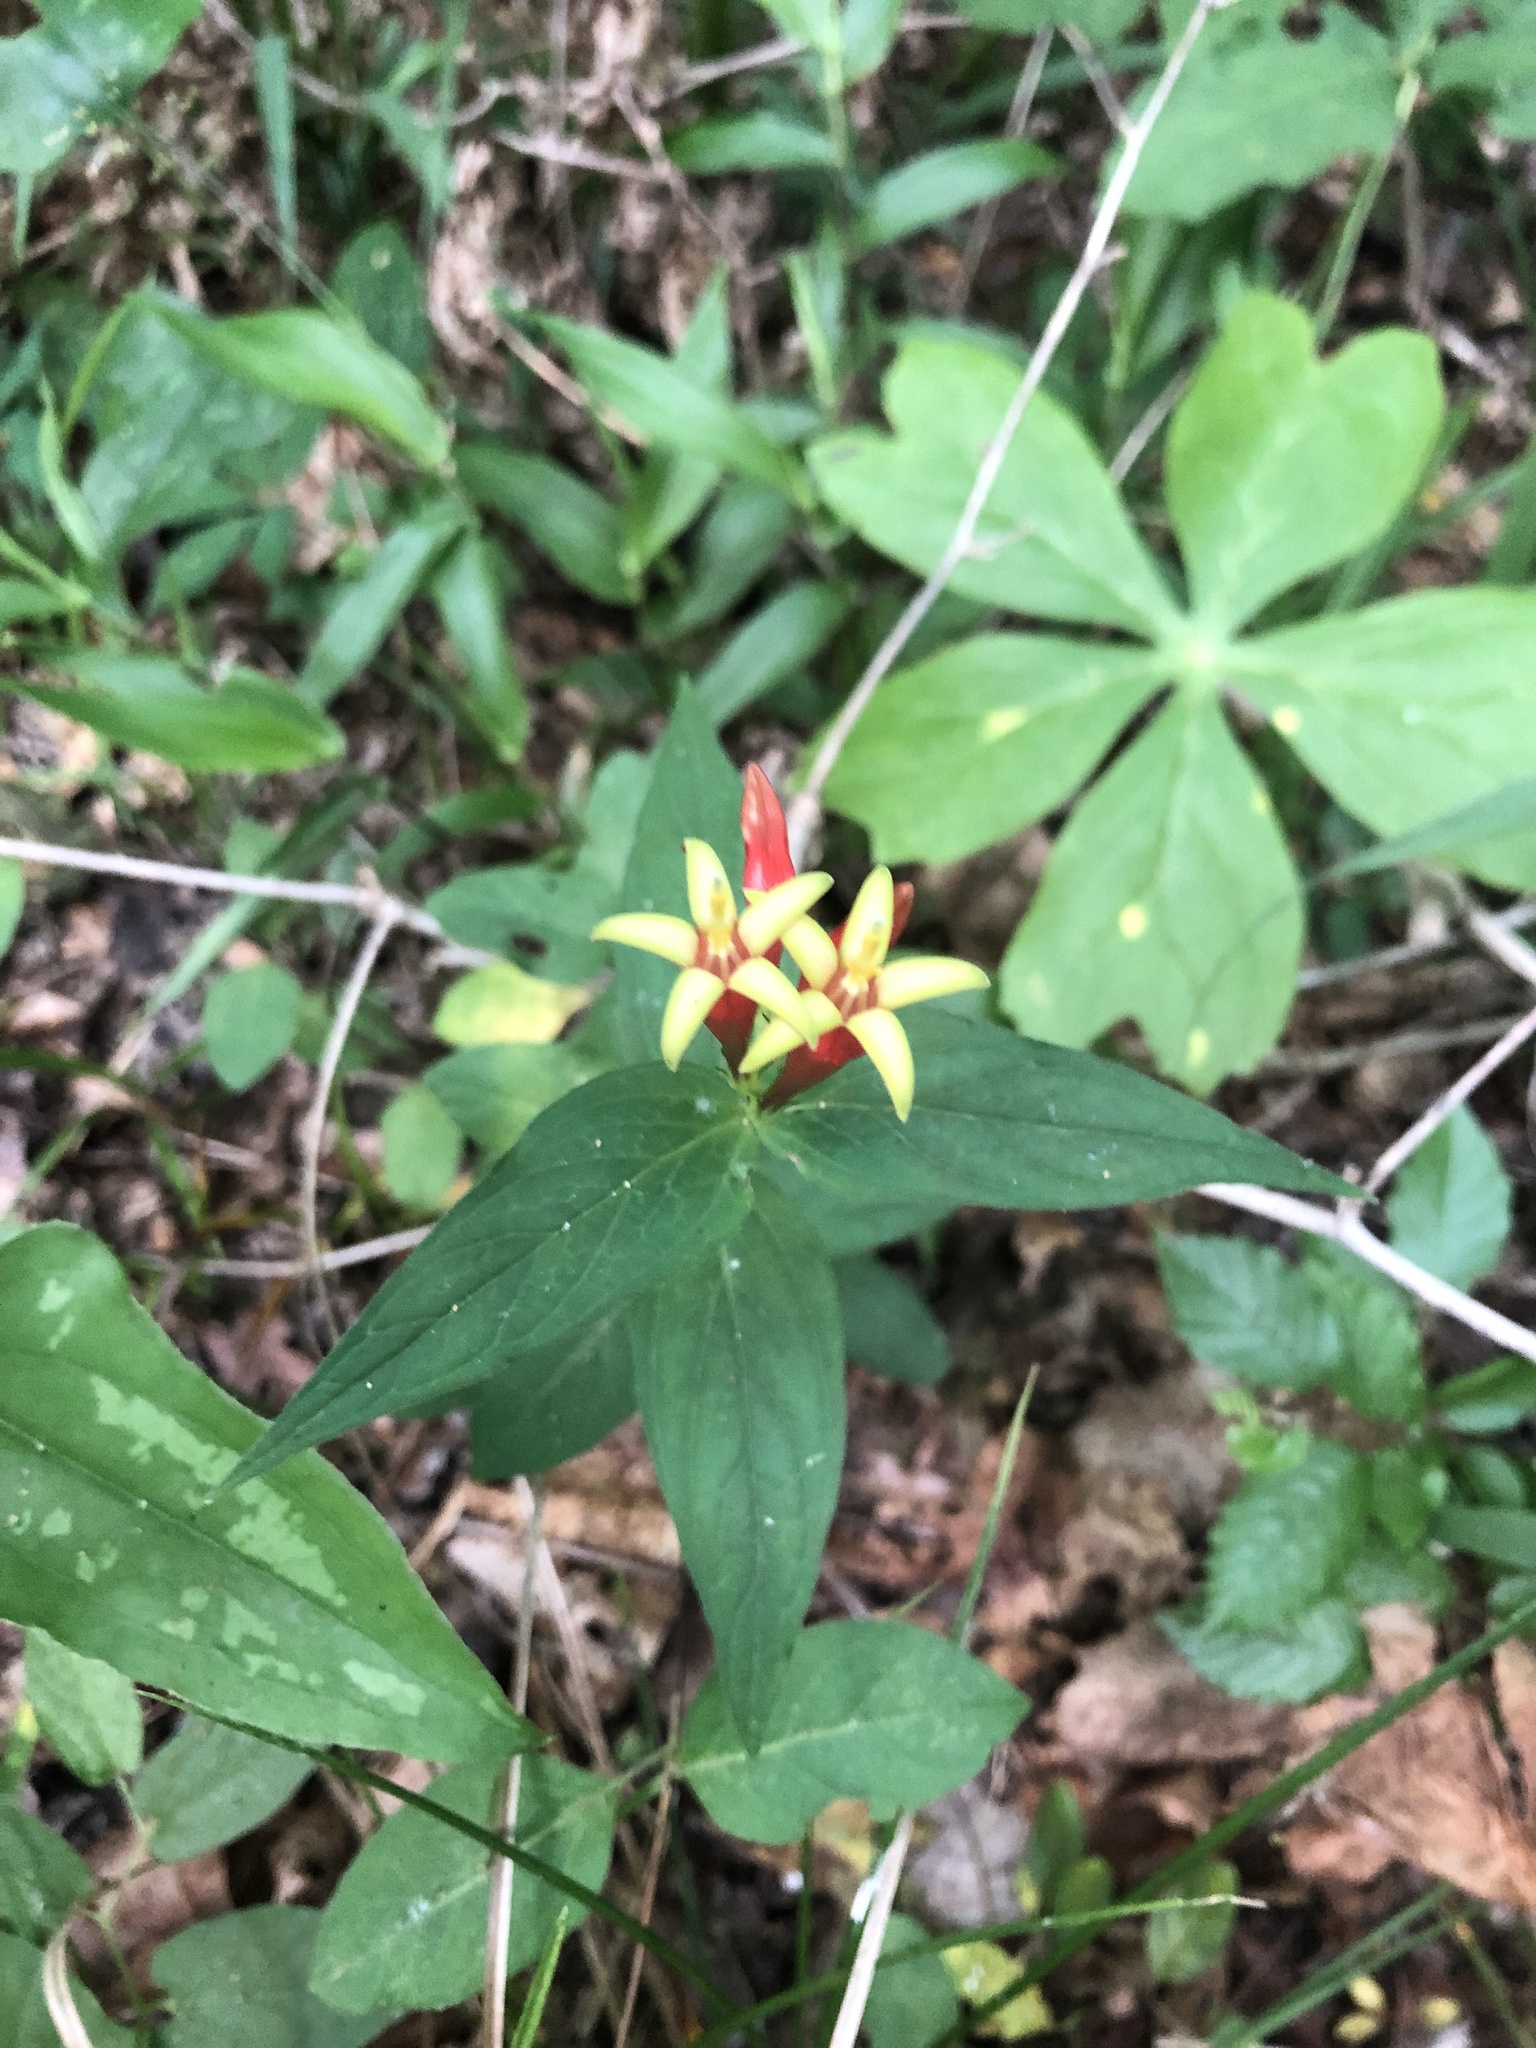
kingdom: Plantae
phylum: Tracheophyta
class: Magnoliopsida
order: Gentianales
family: Loganiaceae
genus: Spigelia
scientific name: Spigelia marilandica
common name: Indian-pink
